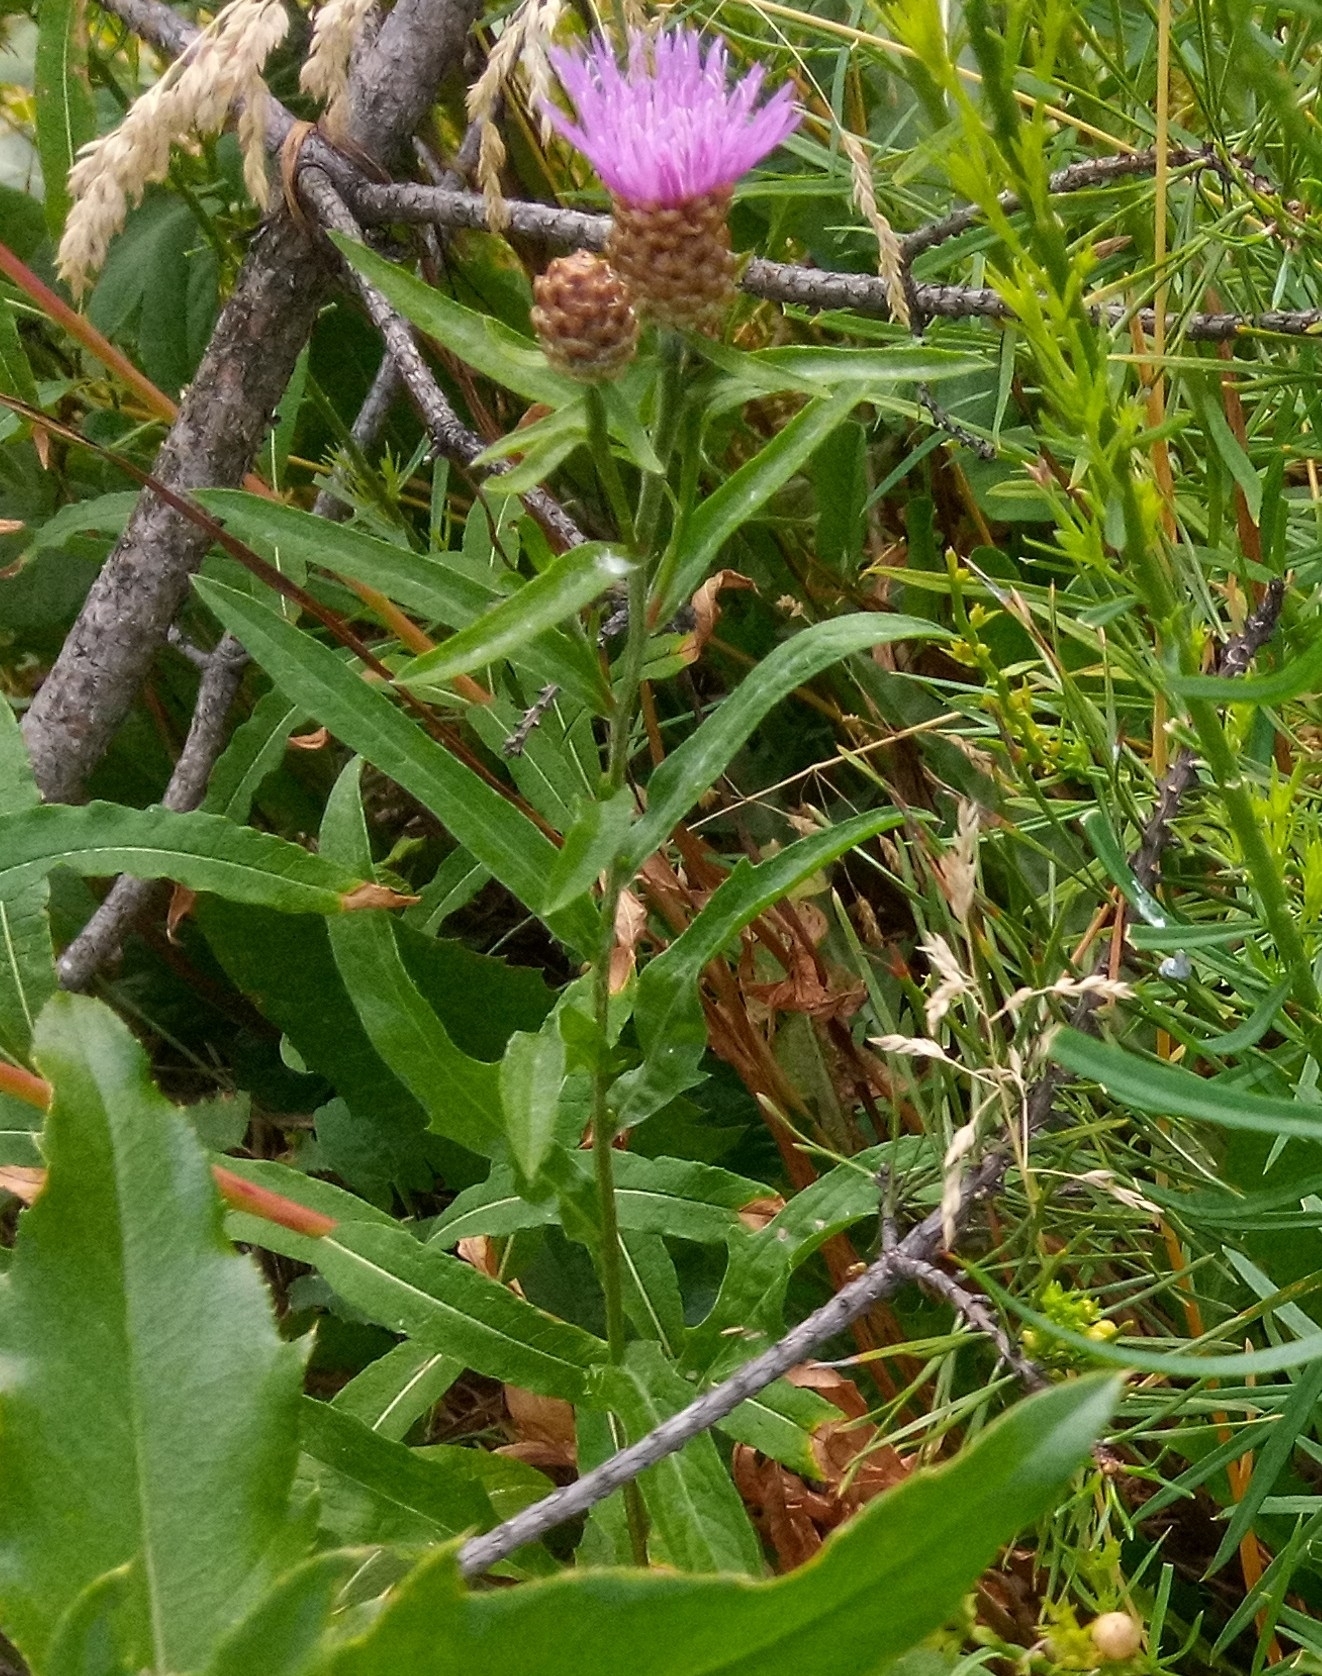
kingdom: Plantae
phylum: Tracheophyta
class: Magnoliopsida
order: Asterales
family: Asteraceae
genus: Centaurea
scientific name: Centaurea jacea
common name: Brown knapweed
